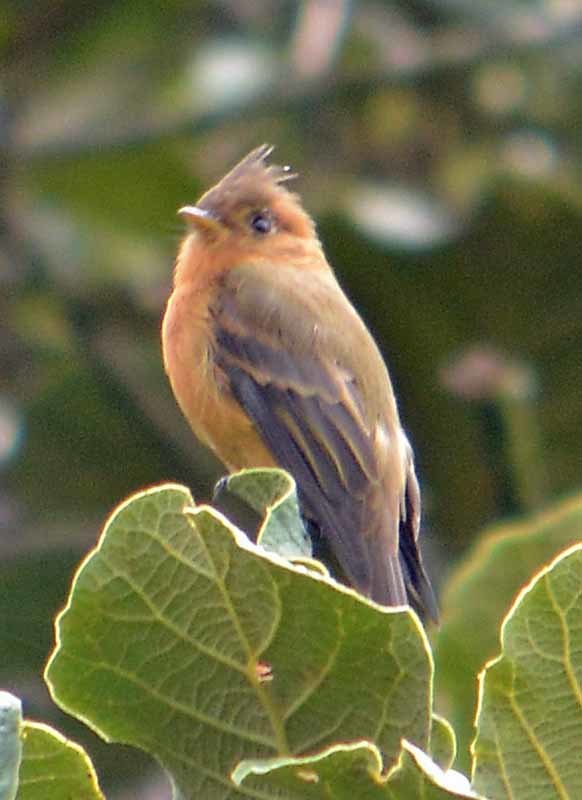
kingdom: Animalia
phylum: Chordata
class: Aves
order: Passeriformes
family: Tyrannidae
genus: Mitrephanes
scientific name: Mitrephanes phaeocercus
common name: Northern tufted flycatcher
